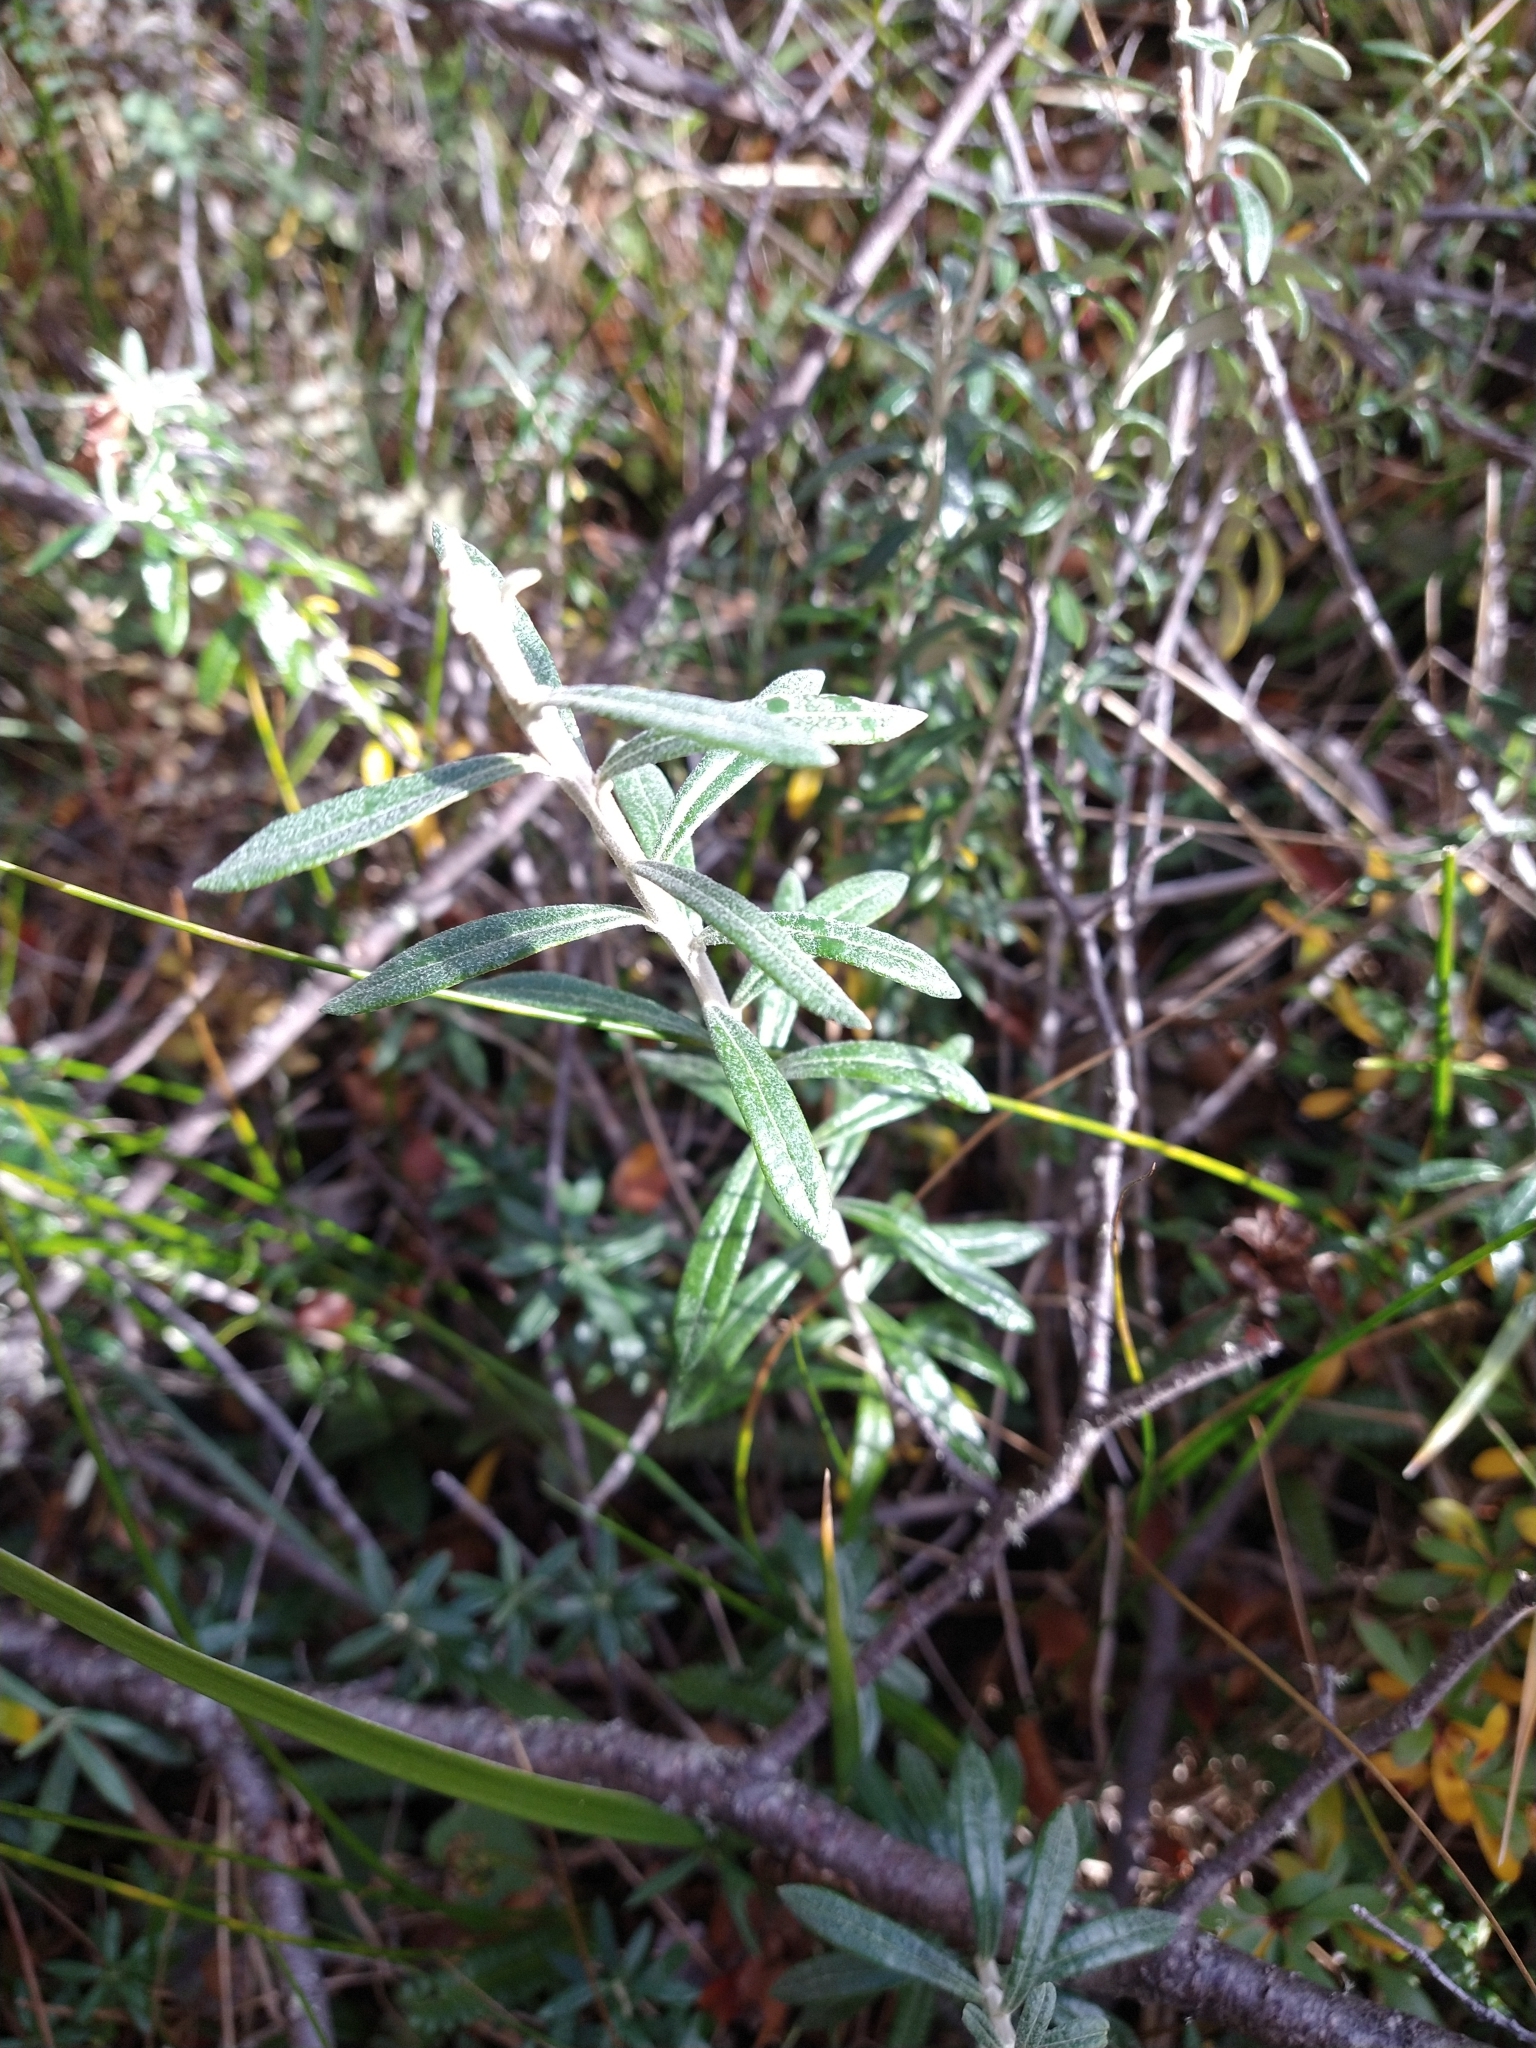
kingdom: Plantae
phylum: Tracheophyta
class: Magnoliopsida
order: Asterales
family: Asteraceae
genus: Chiliotrichum
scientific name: Chiliotrichum diffusum
